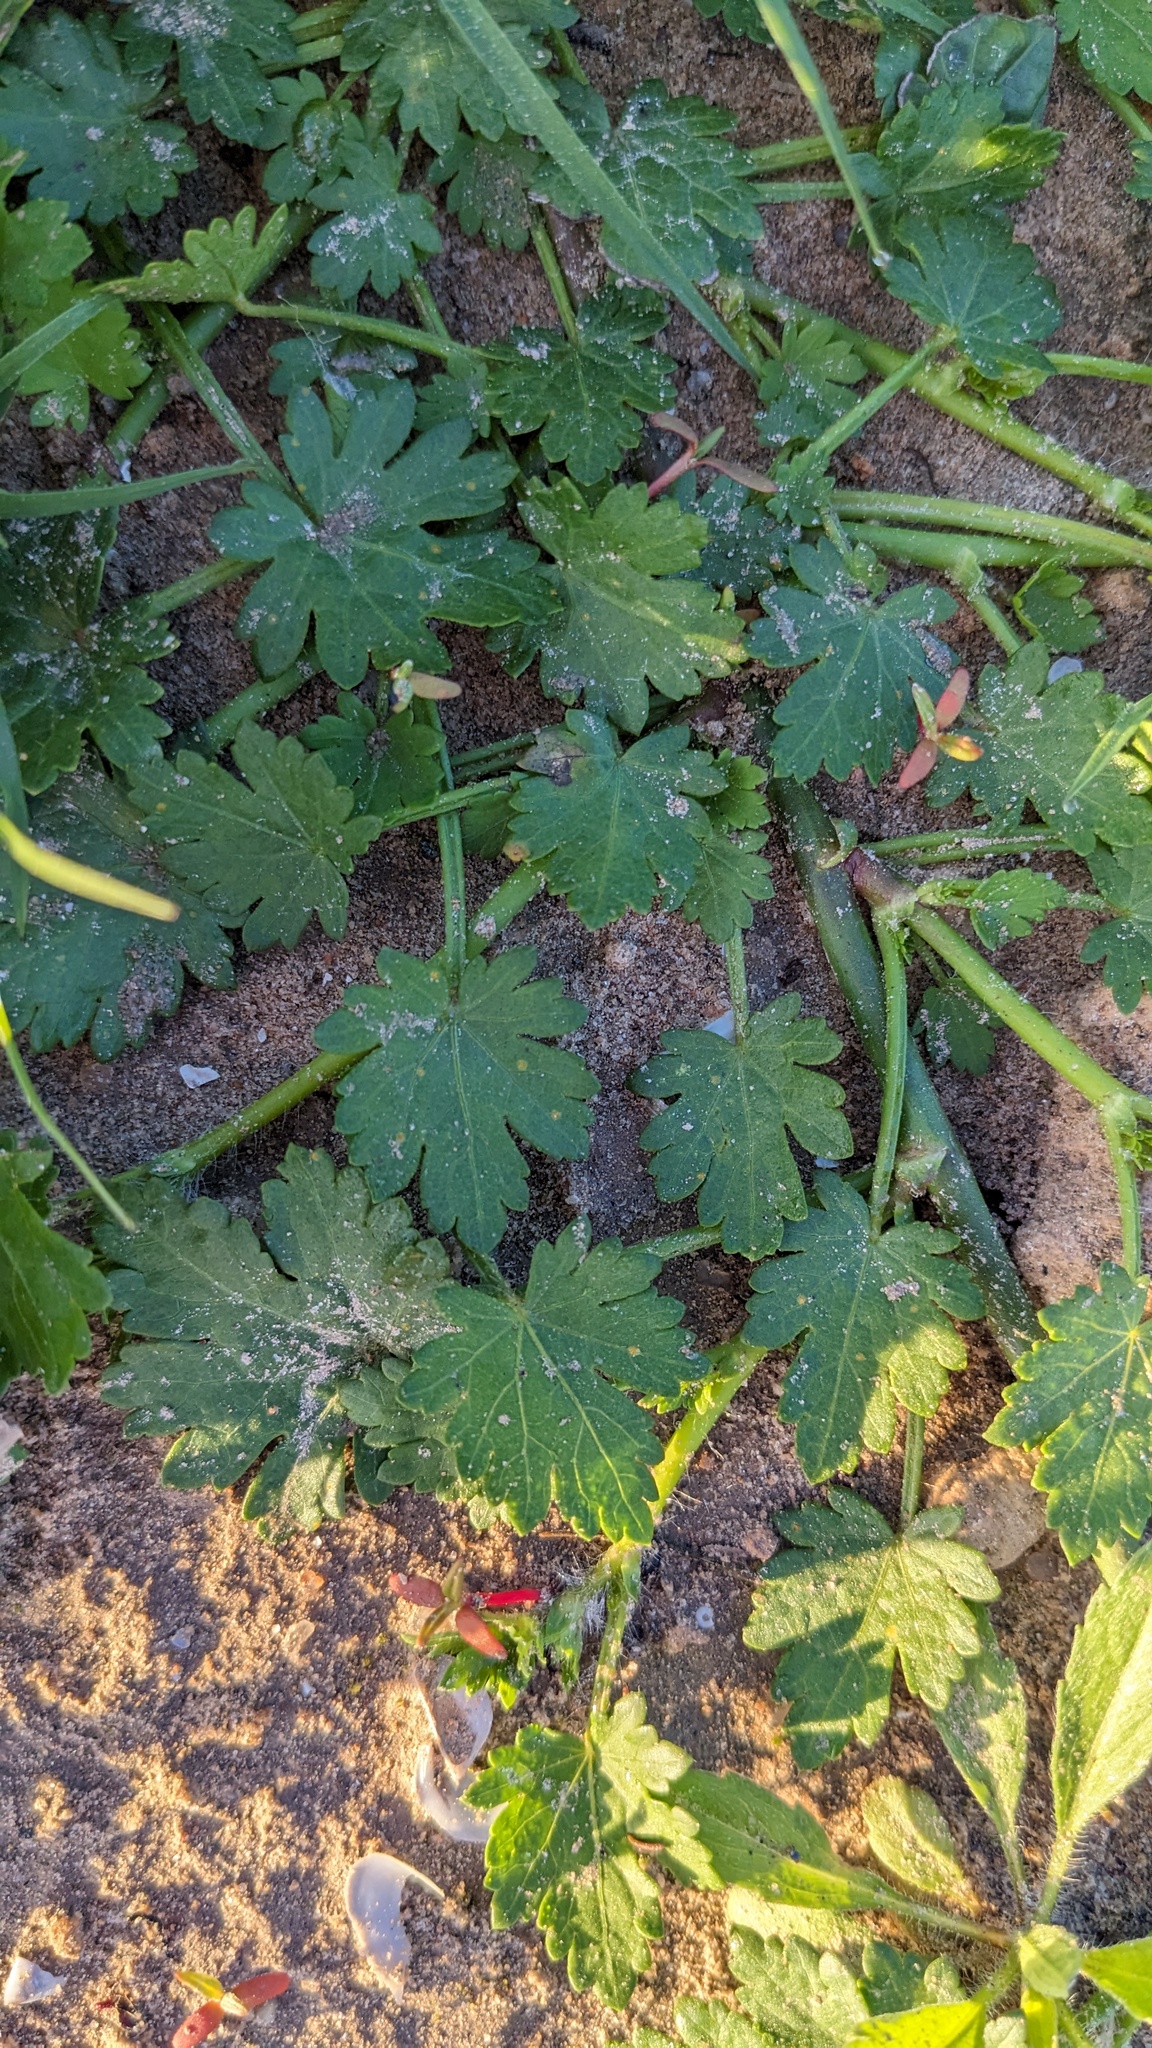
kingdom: Plantae
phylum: Tracheophyta
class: Magnoliopsida
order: Malvales
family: Malvaceae
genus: Modiola
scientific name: Modiola caroliniana
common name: Carolina bristlemallow
